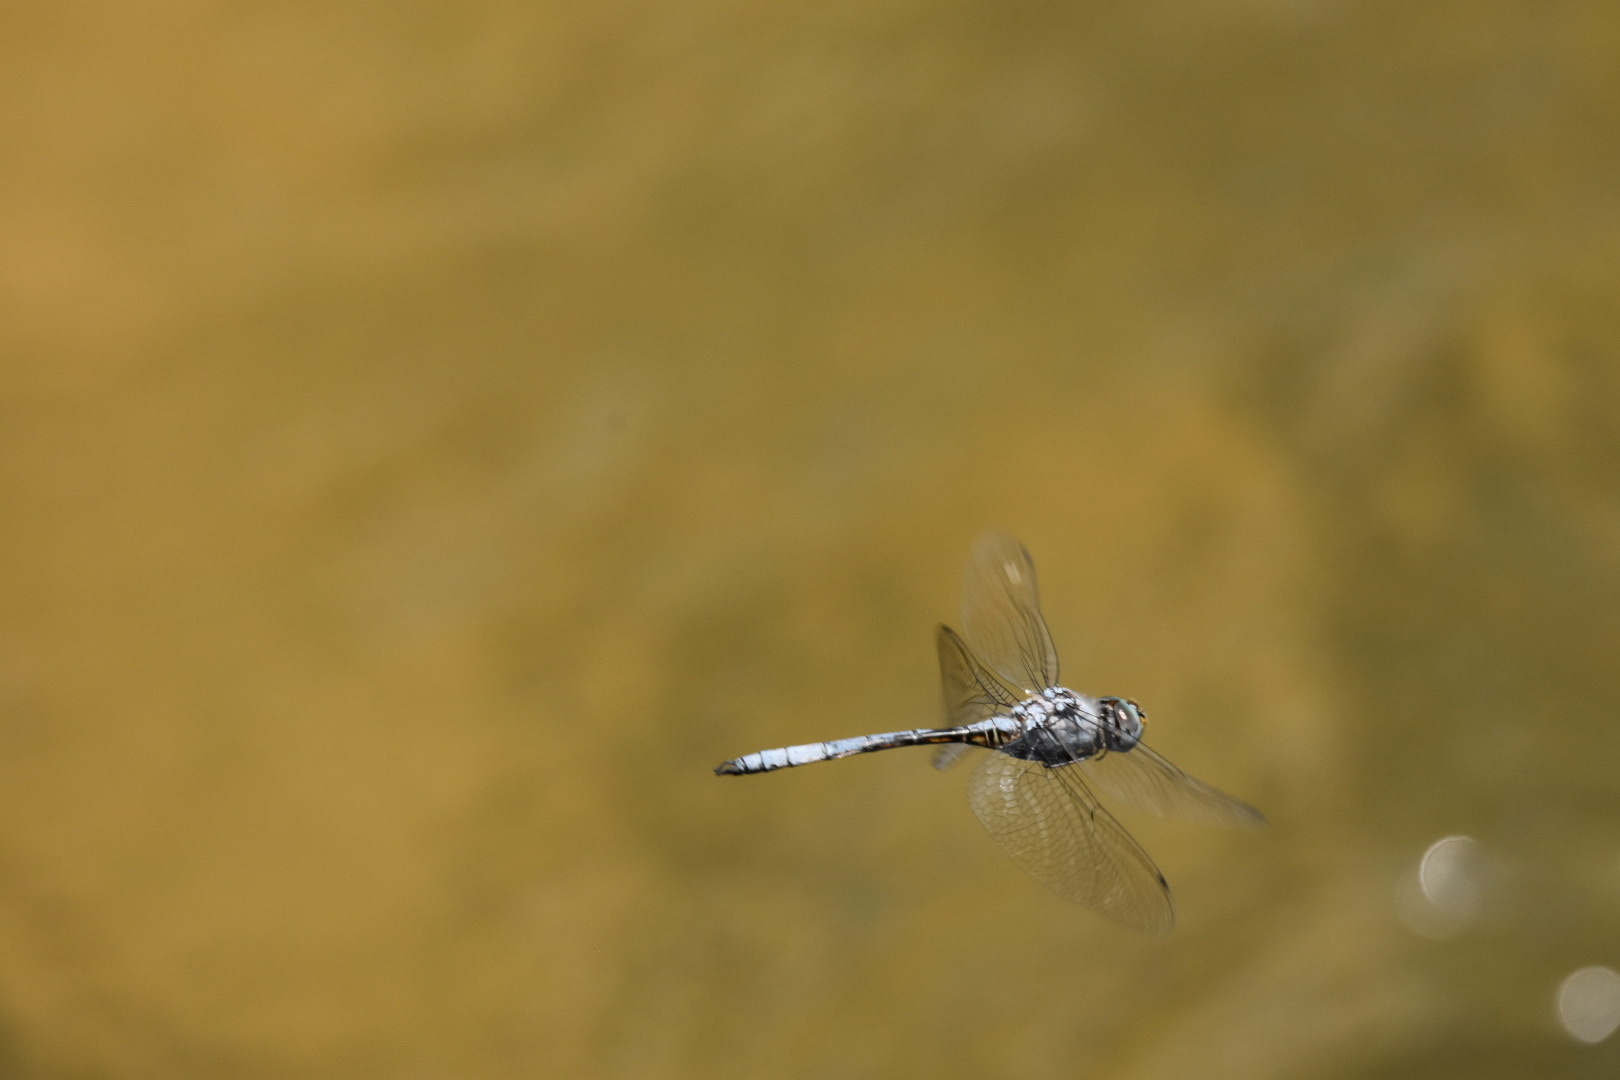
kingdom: Animalia
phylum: Arthropoda
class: Insecta
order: Odonata
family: Libellulidae
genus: Zygonyx
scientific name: Zygonyx natalensis
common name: Blue cascader
